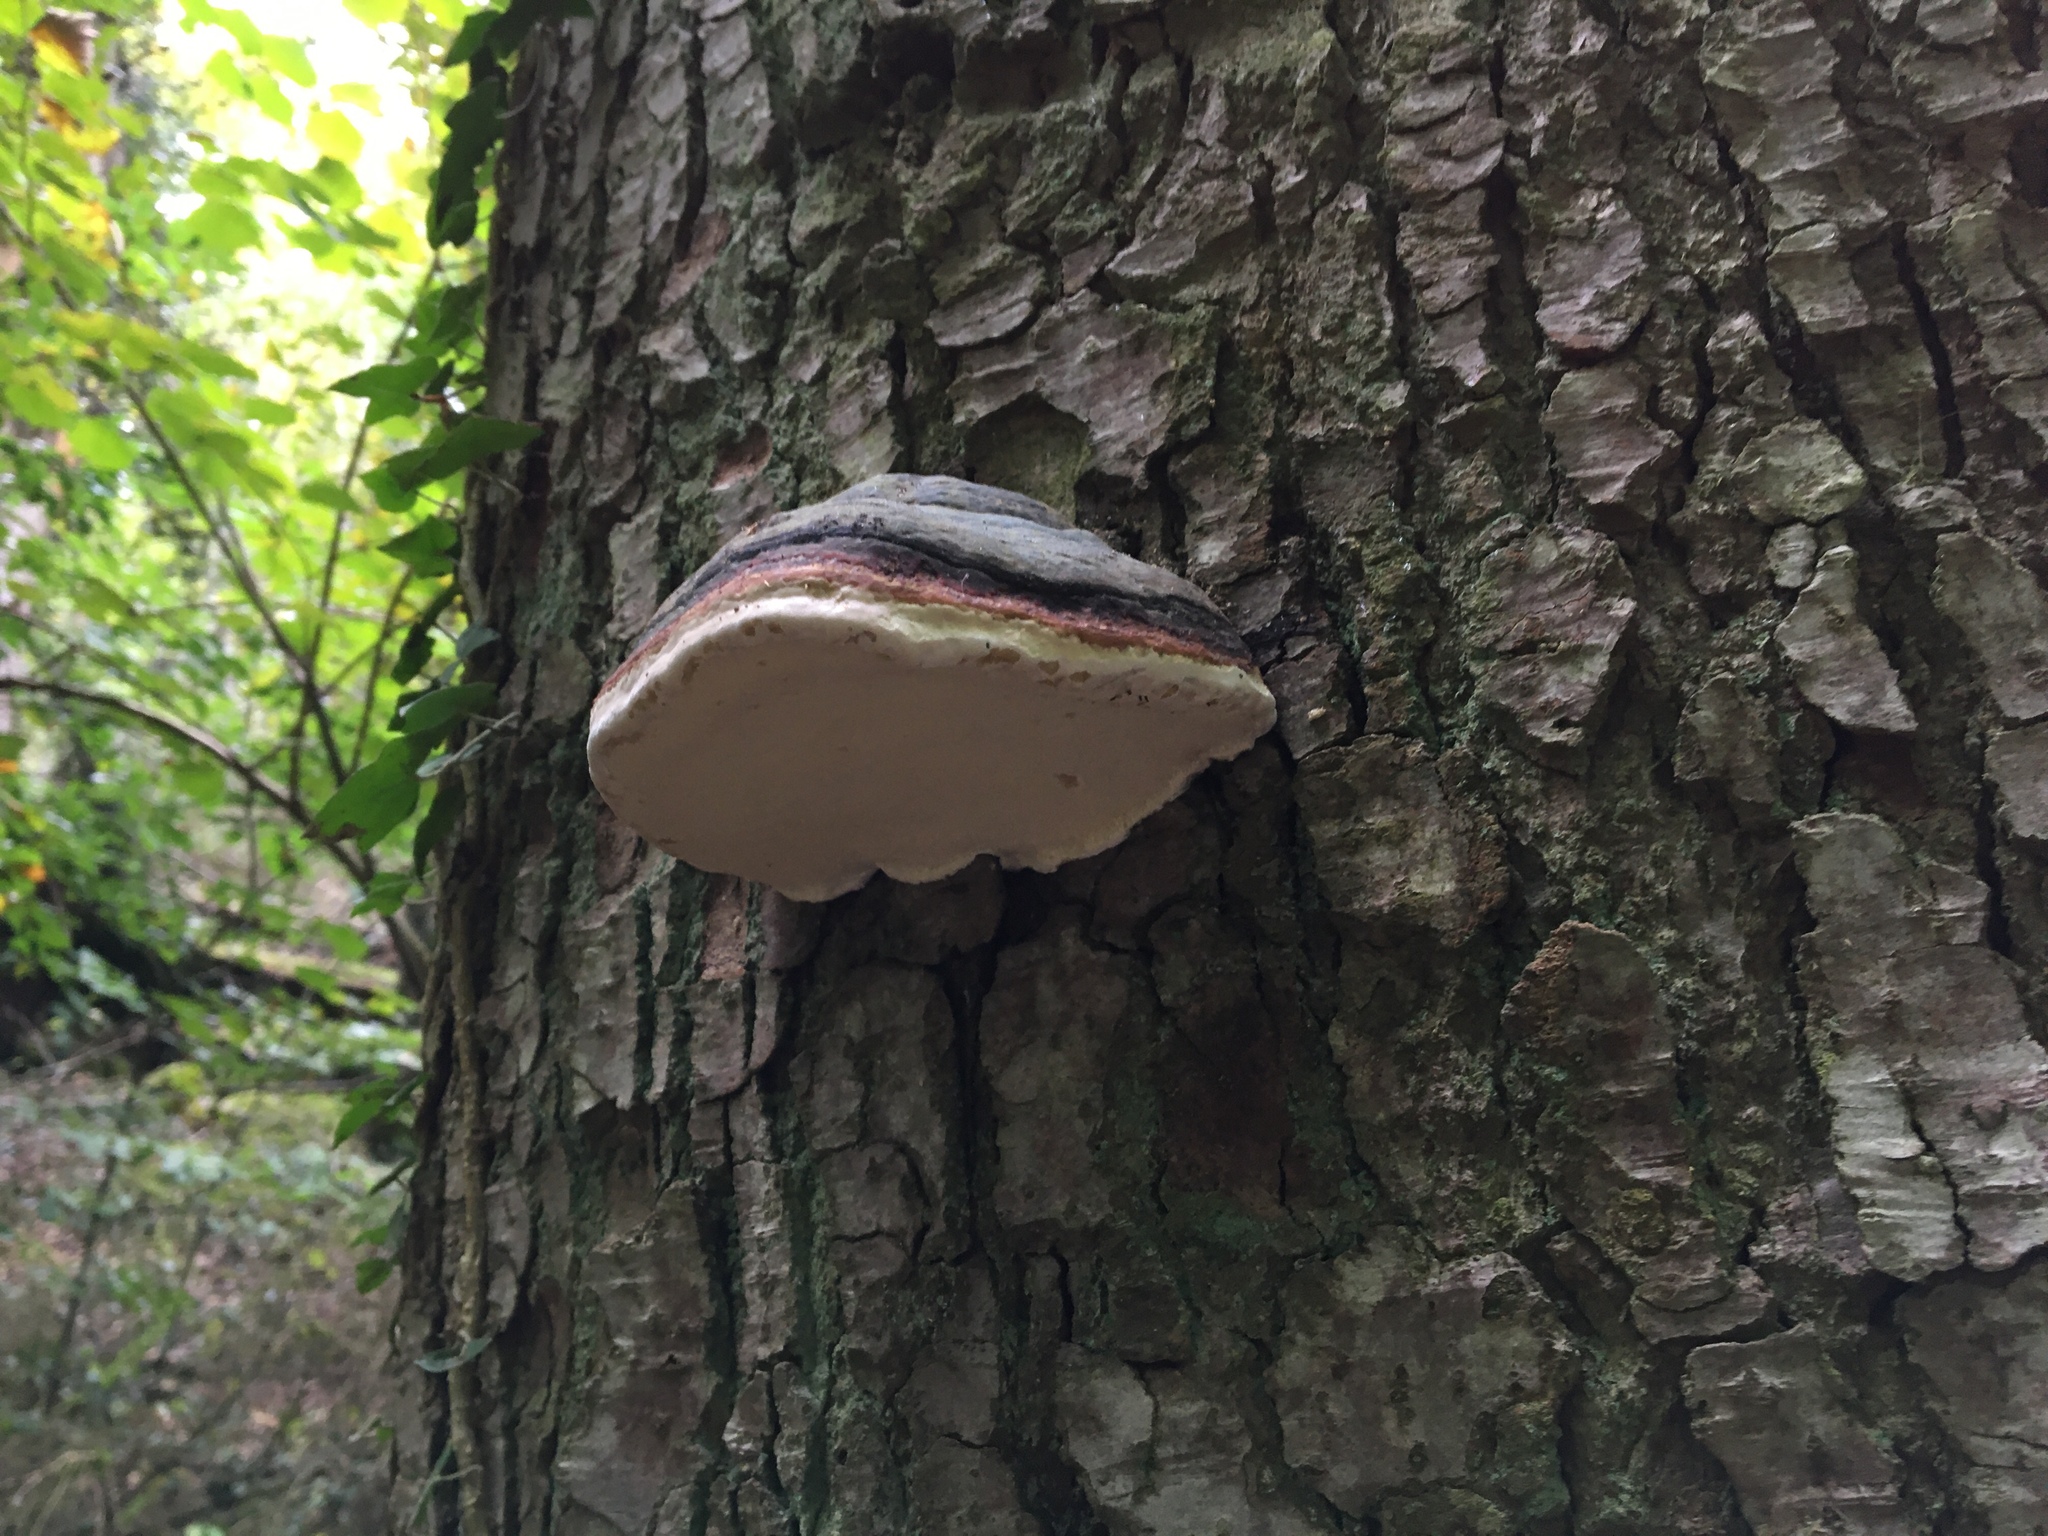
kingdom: Fungi
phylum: Basidiomycota
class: Agaricomycetes
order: Polyporales
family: Fomitopsidaceae
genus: Fomitopsis
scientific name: Fomitopsis pinicola
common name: Red-belted bracket
